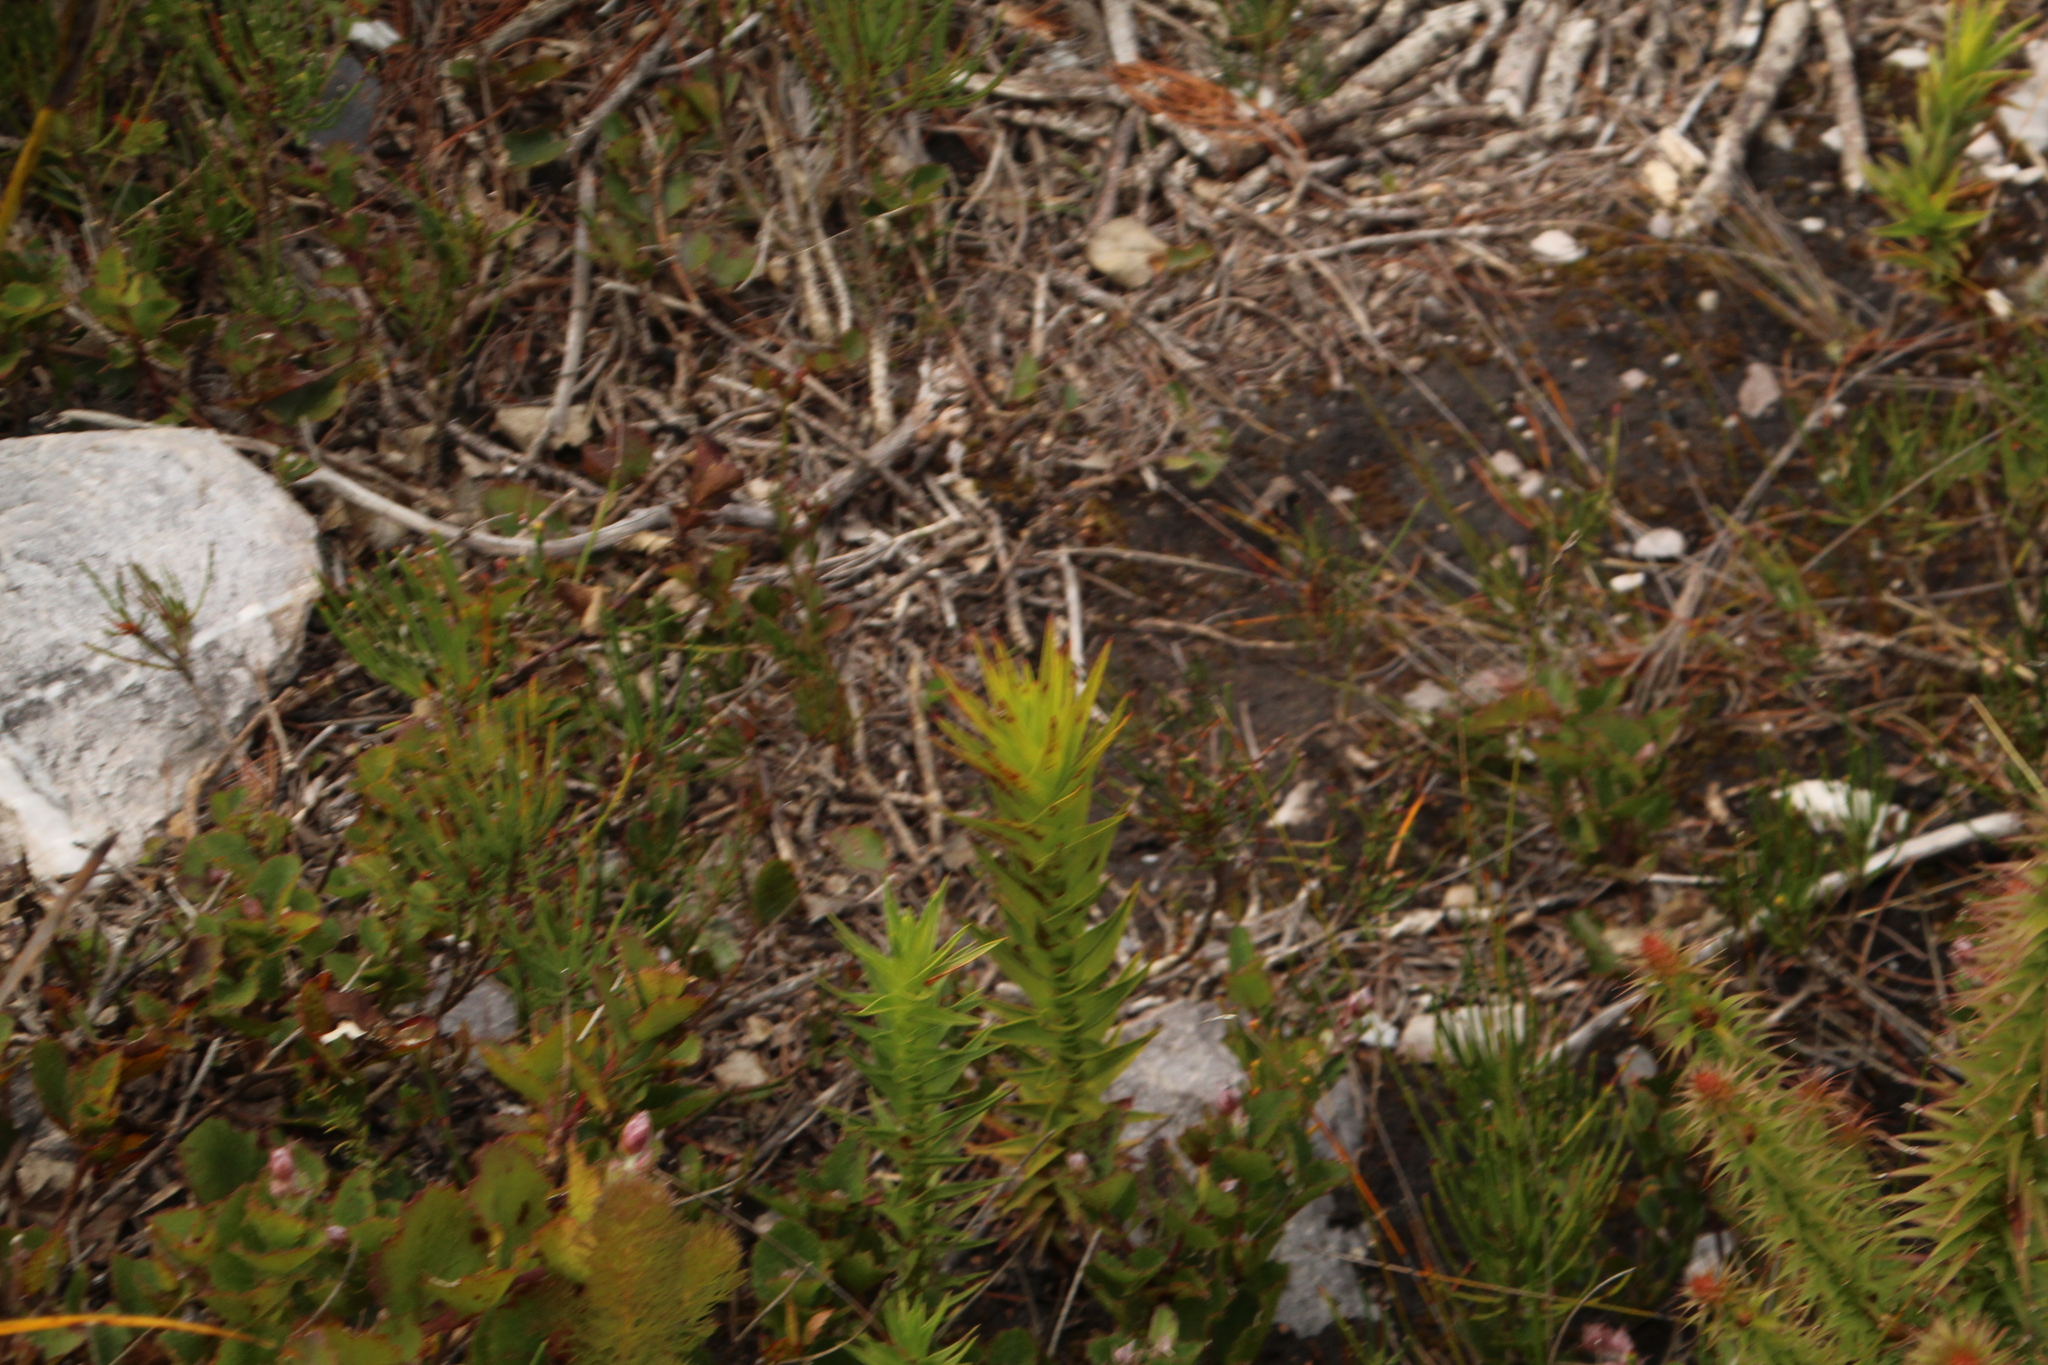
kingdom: Plantae
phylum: Tracheophyta
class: Magnoliopsida
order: Ericales
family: Ericaceae
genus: Andersonia
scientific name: Andersonia axilliflora
